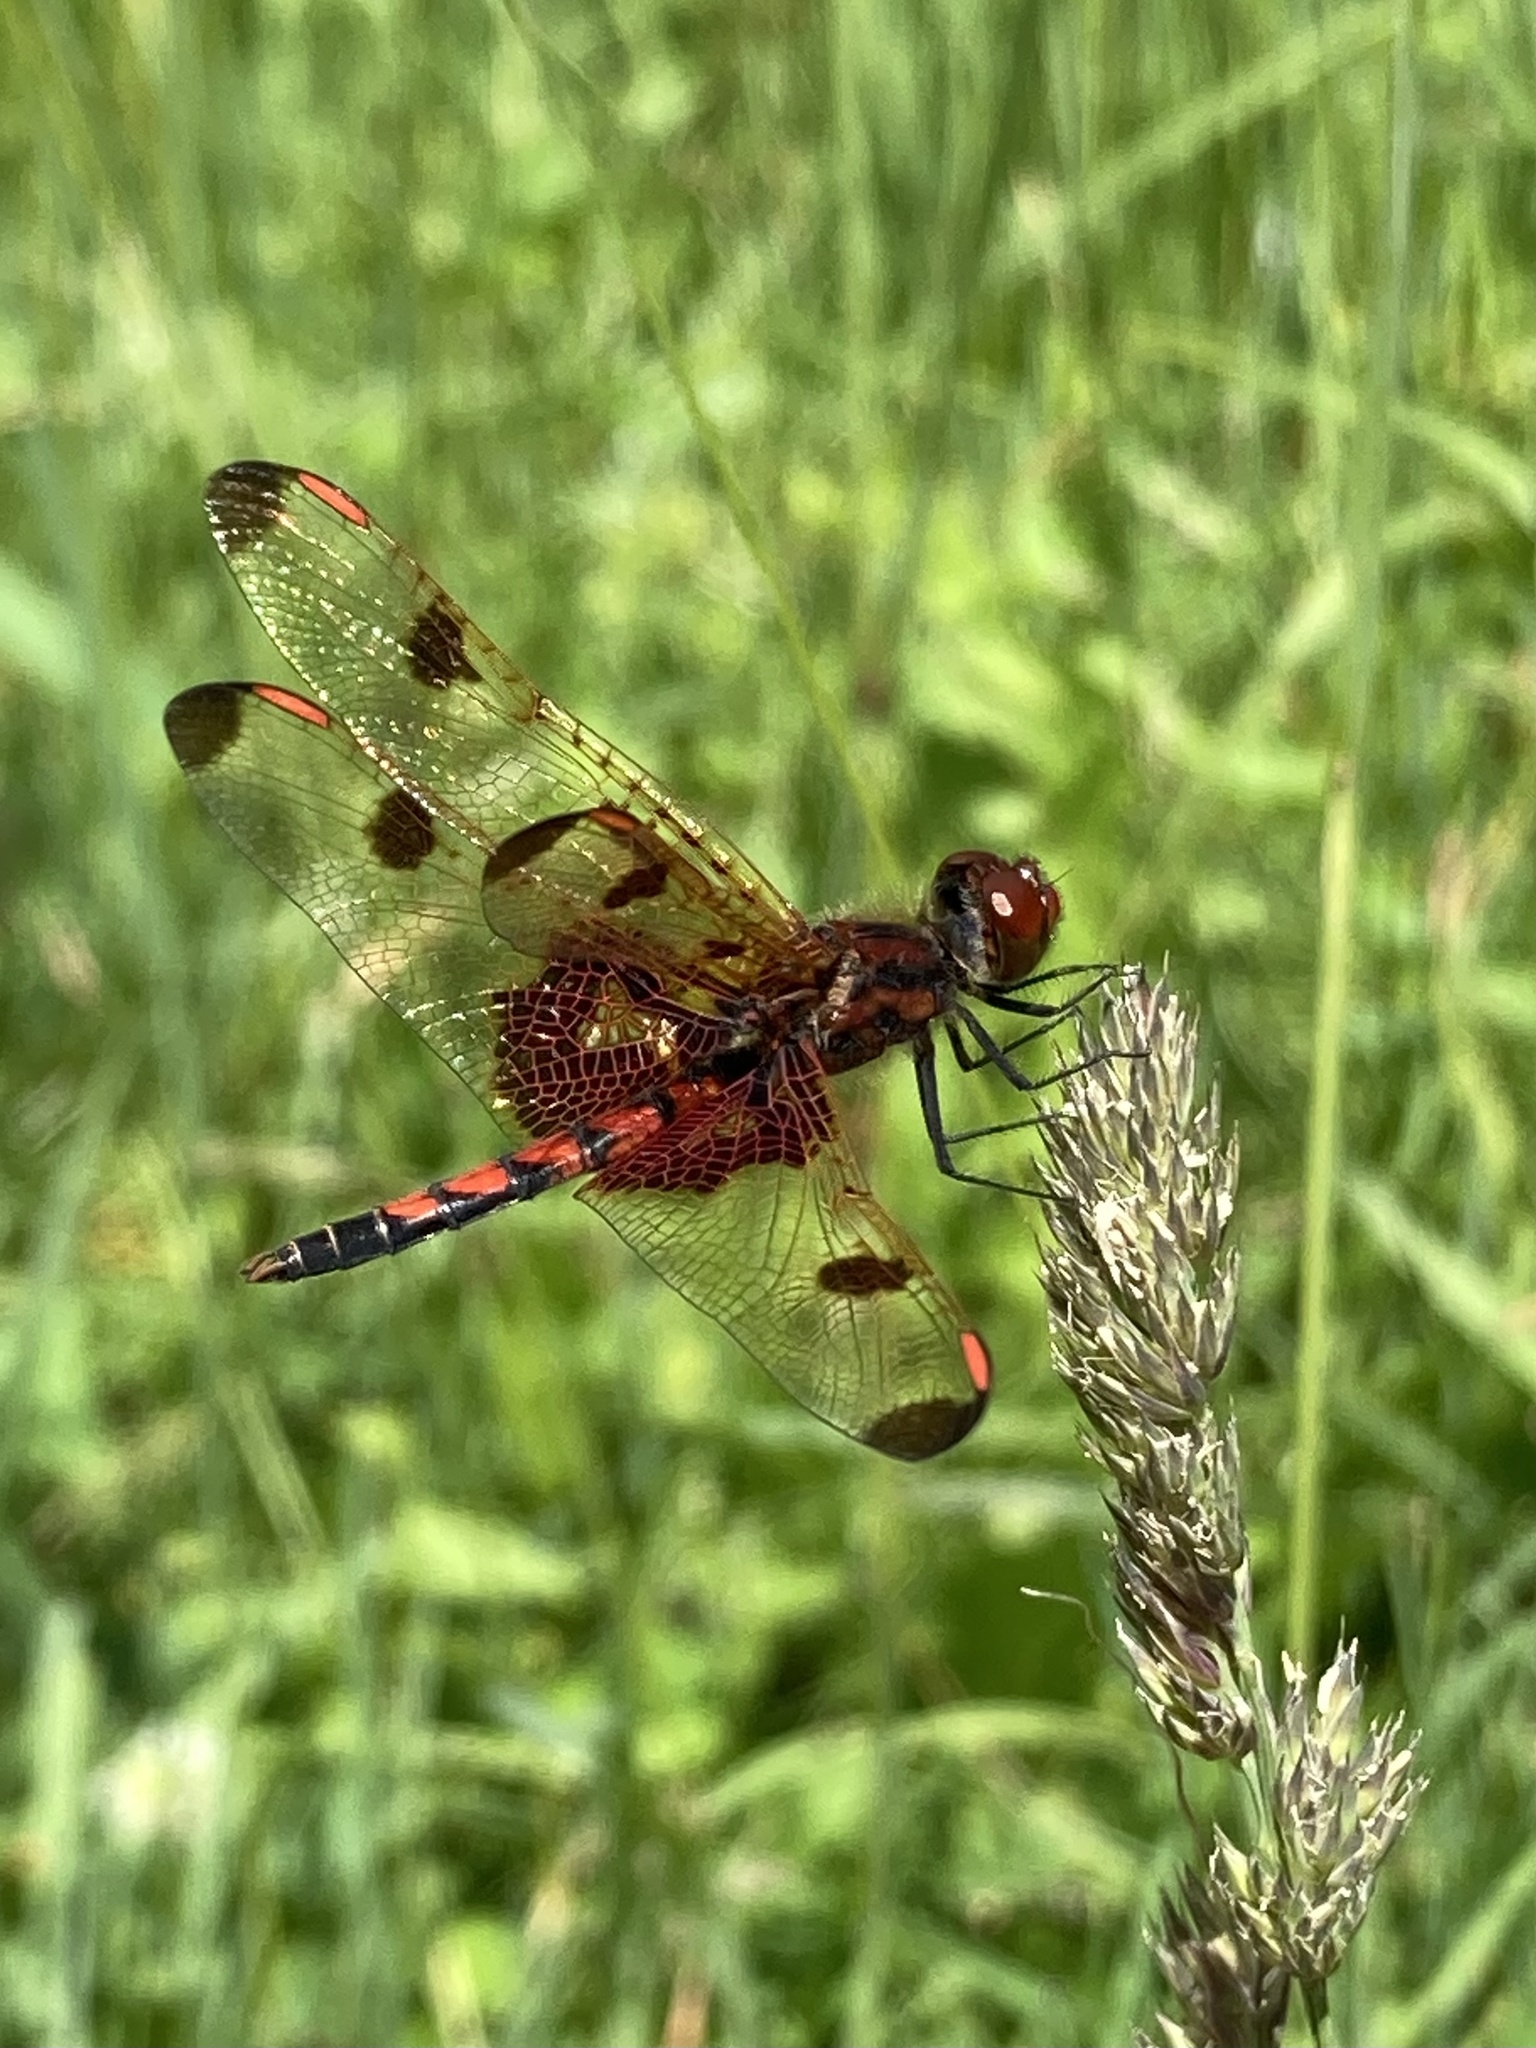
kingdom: Animalia
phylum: Arthropoda
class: Insecta
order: Odonata
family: Libellulidae
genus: Celithemis
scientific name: Celithemis elisa
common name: Calico pennant
